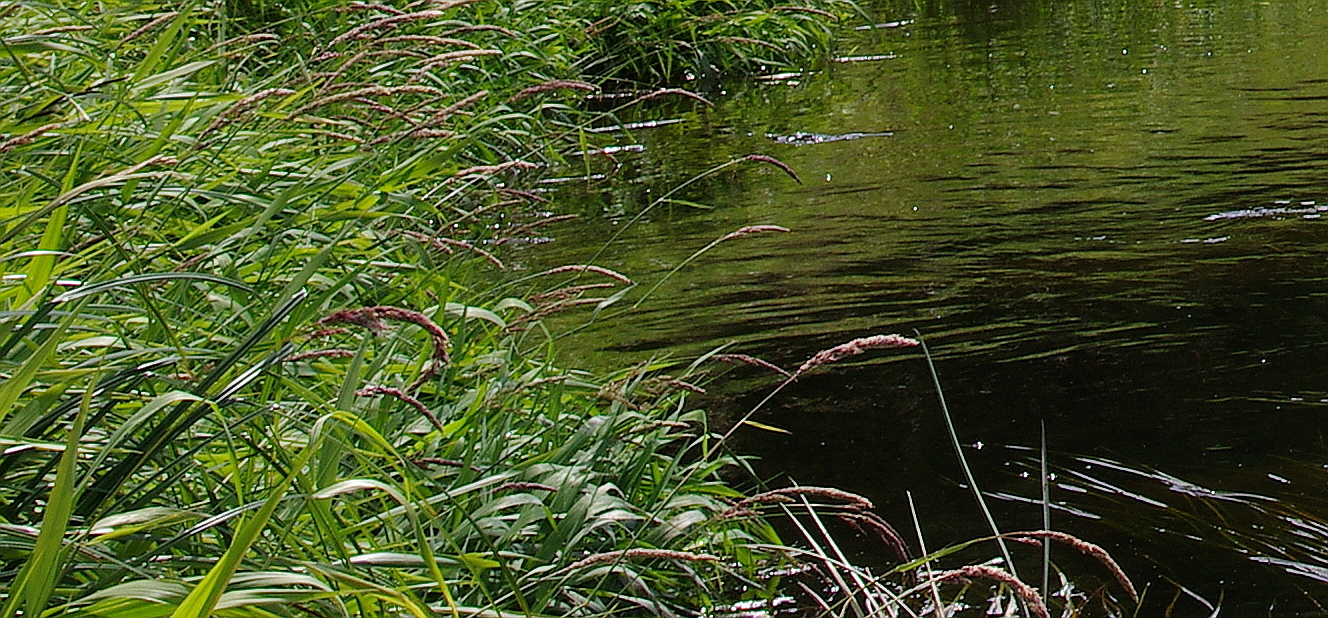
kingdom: Plantae
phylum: Tracheophyta
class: Liliopsida
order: Poales
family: Poaceae
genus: Phalaris
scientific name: Phalaris arundinacea
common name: Reed canary-grass
